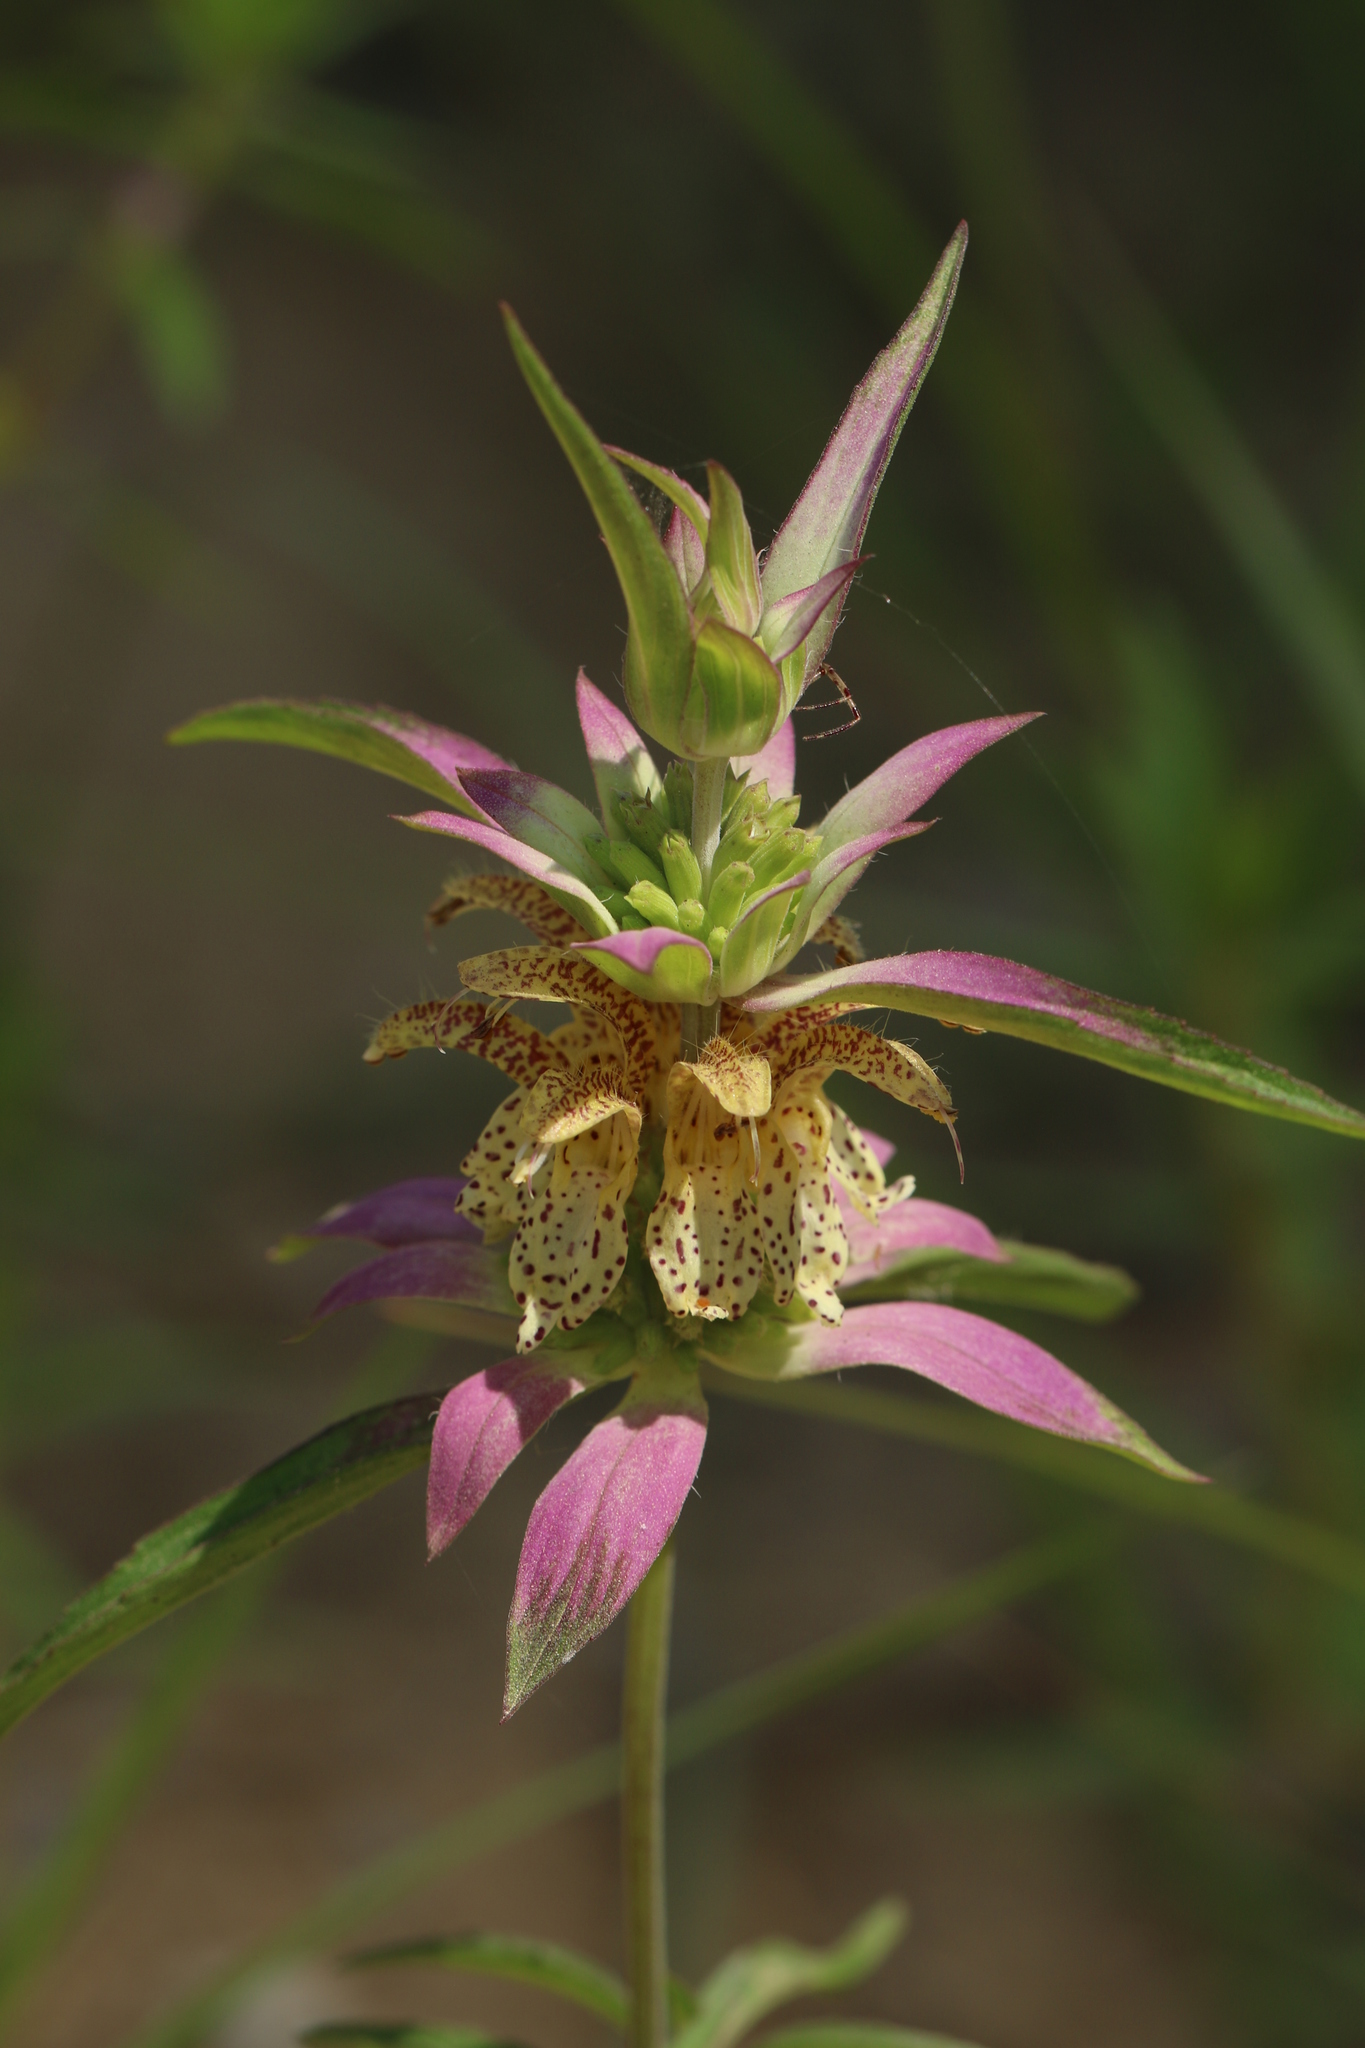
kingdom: Plantae
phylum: Tracheophyta
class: Magnoliopsida
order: Lamiales
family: Lamiaceae
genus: Monarda
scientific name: Monarda punctata
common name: Dotted monarda
